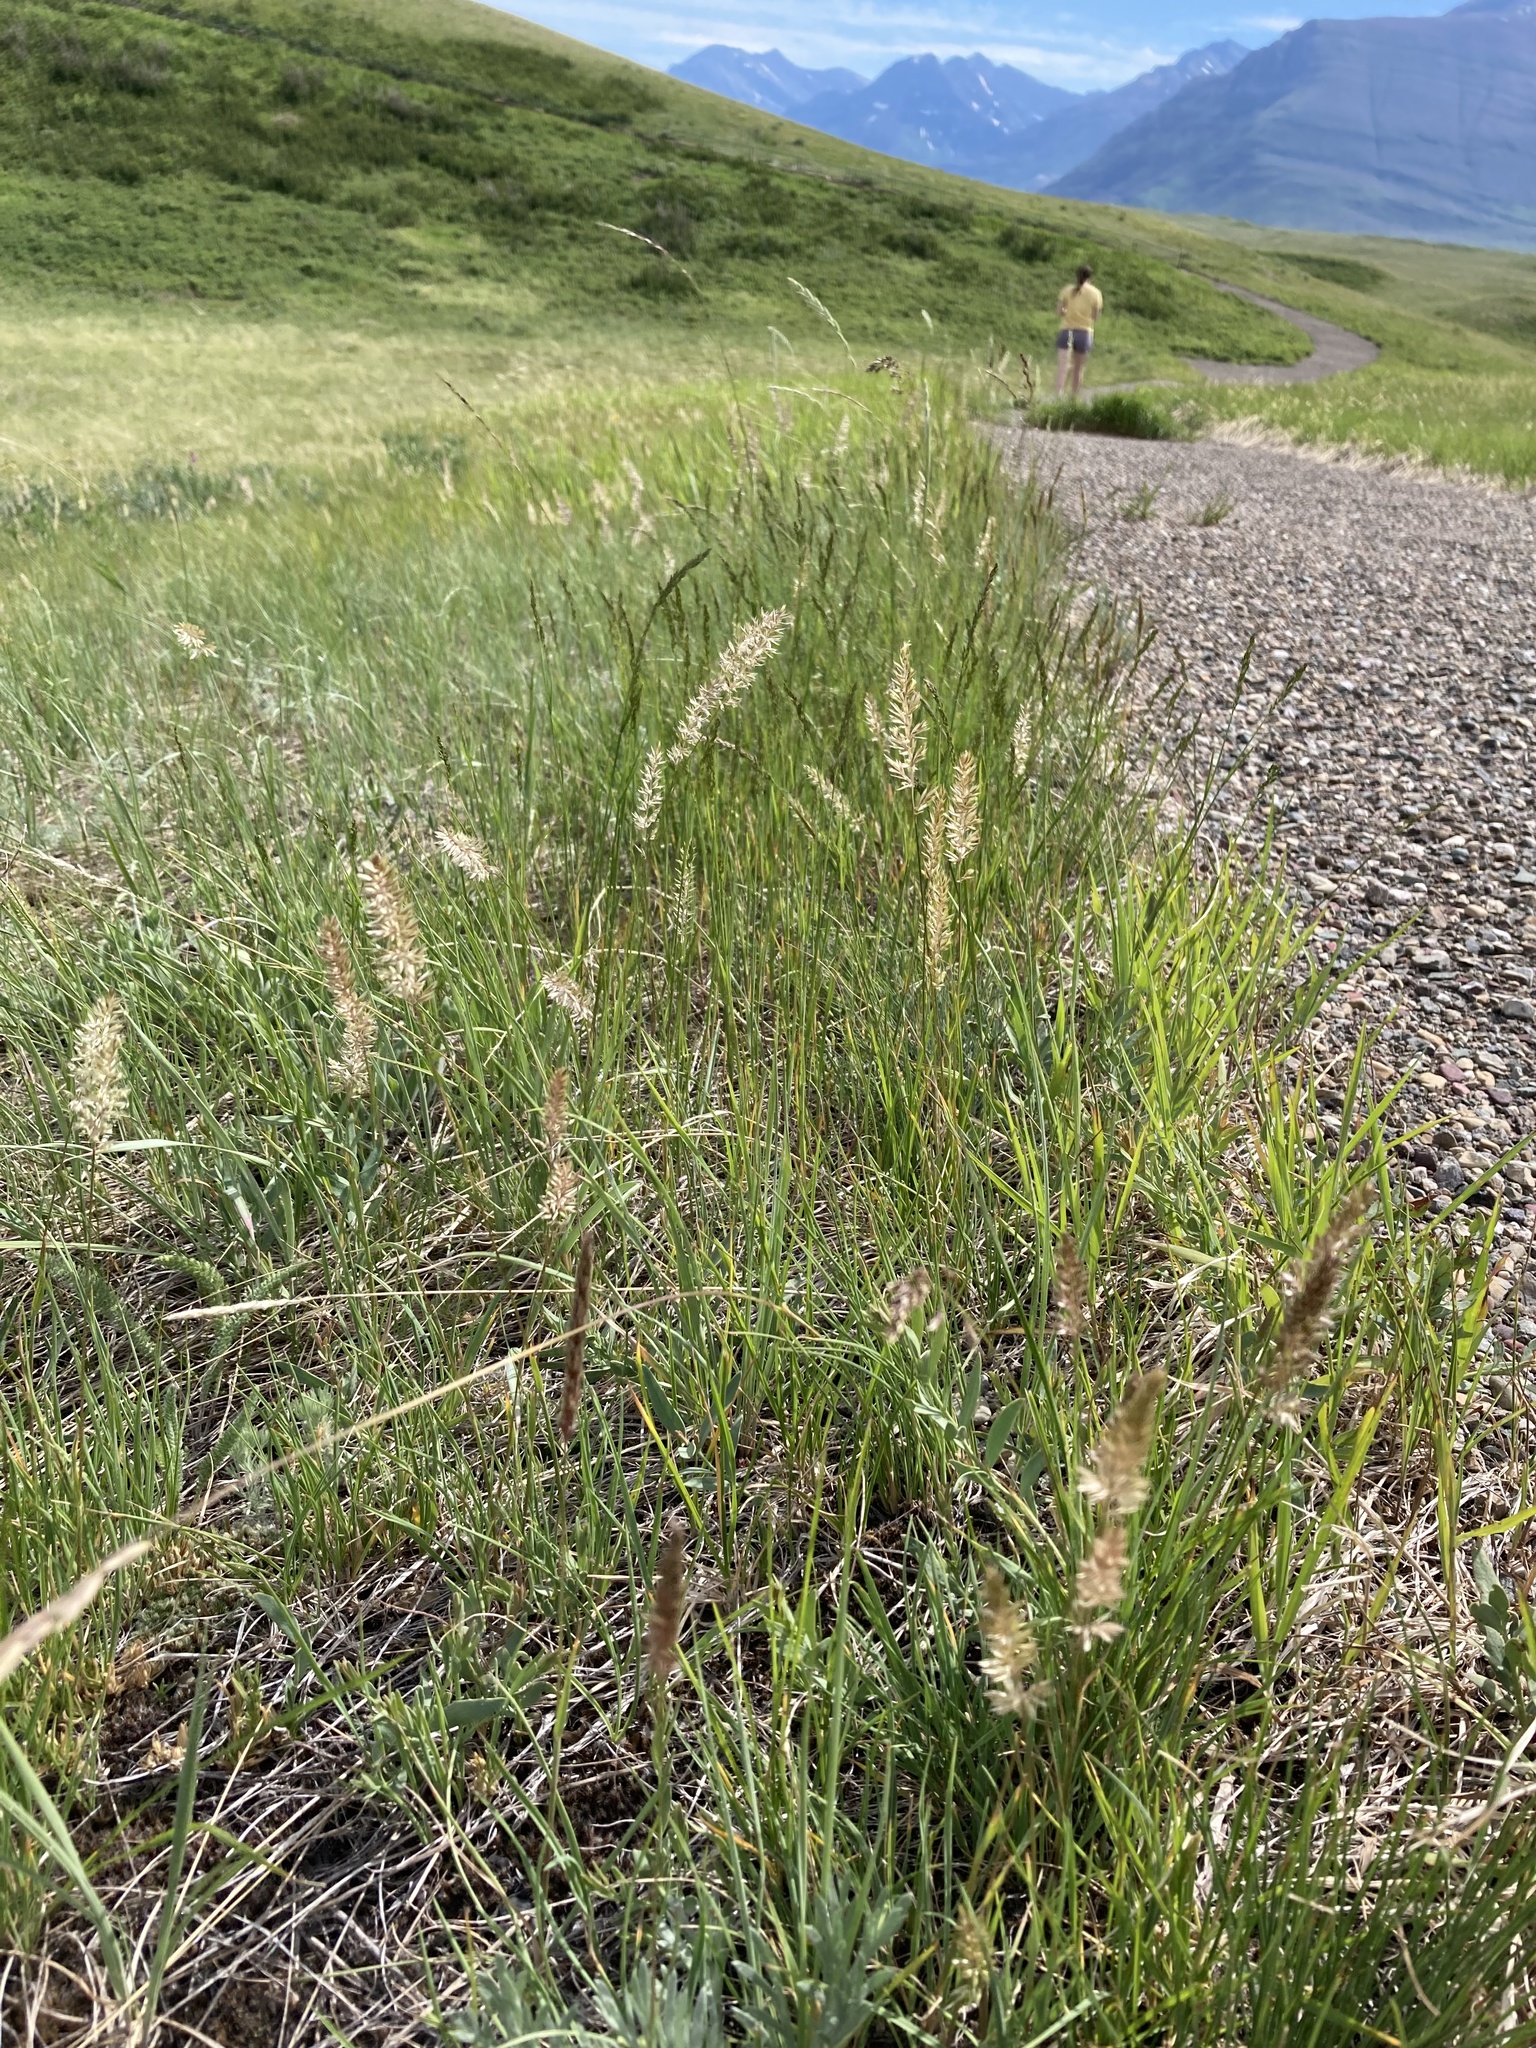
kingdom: Plantae
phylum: Tracheophyta
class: Liliopsida
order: Poales
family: Poaceae
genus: Koeleria
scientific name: Koeleria macrantha
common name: Crested hair-grass
